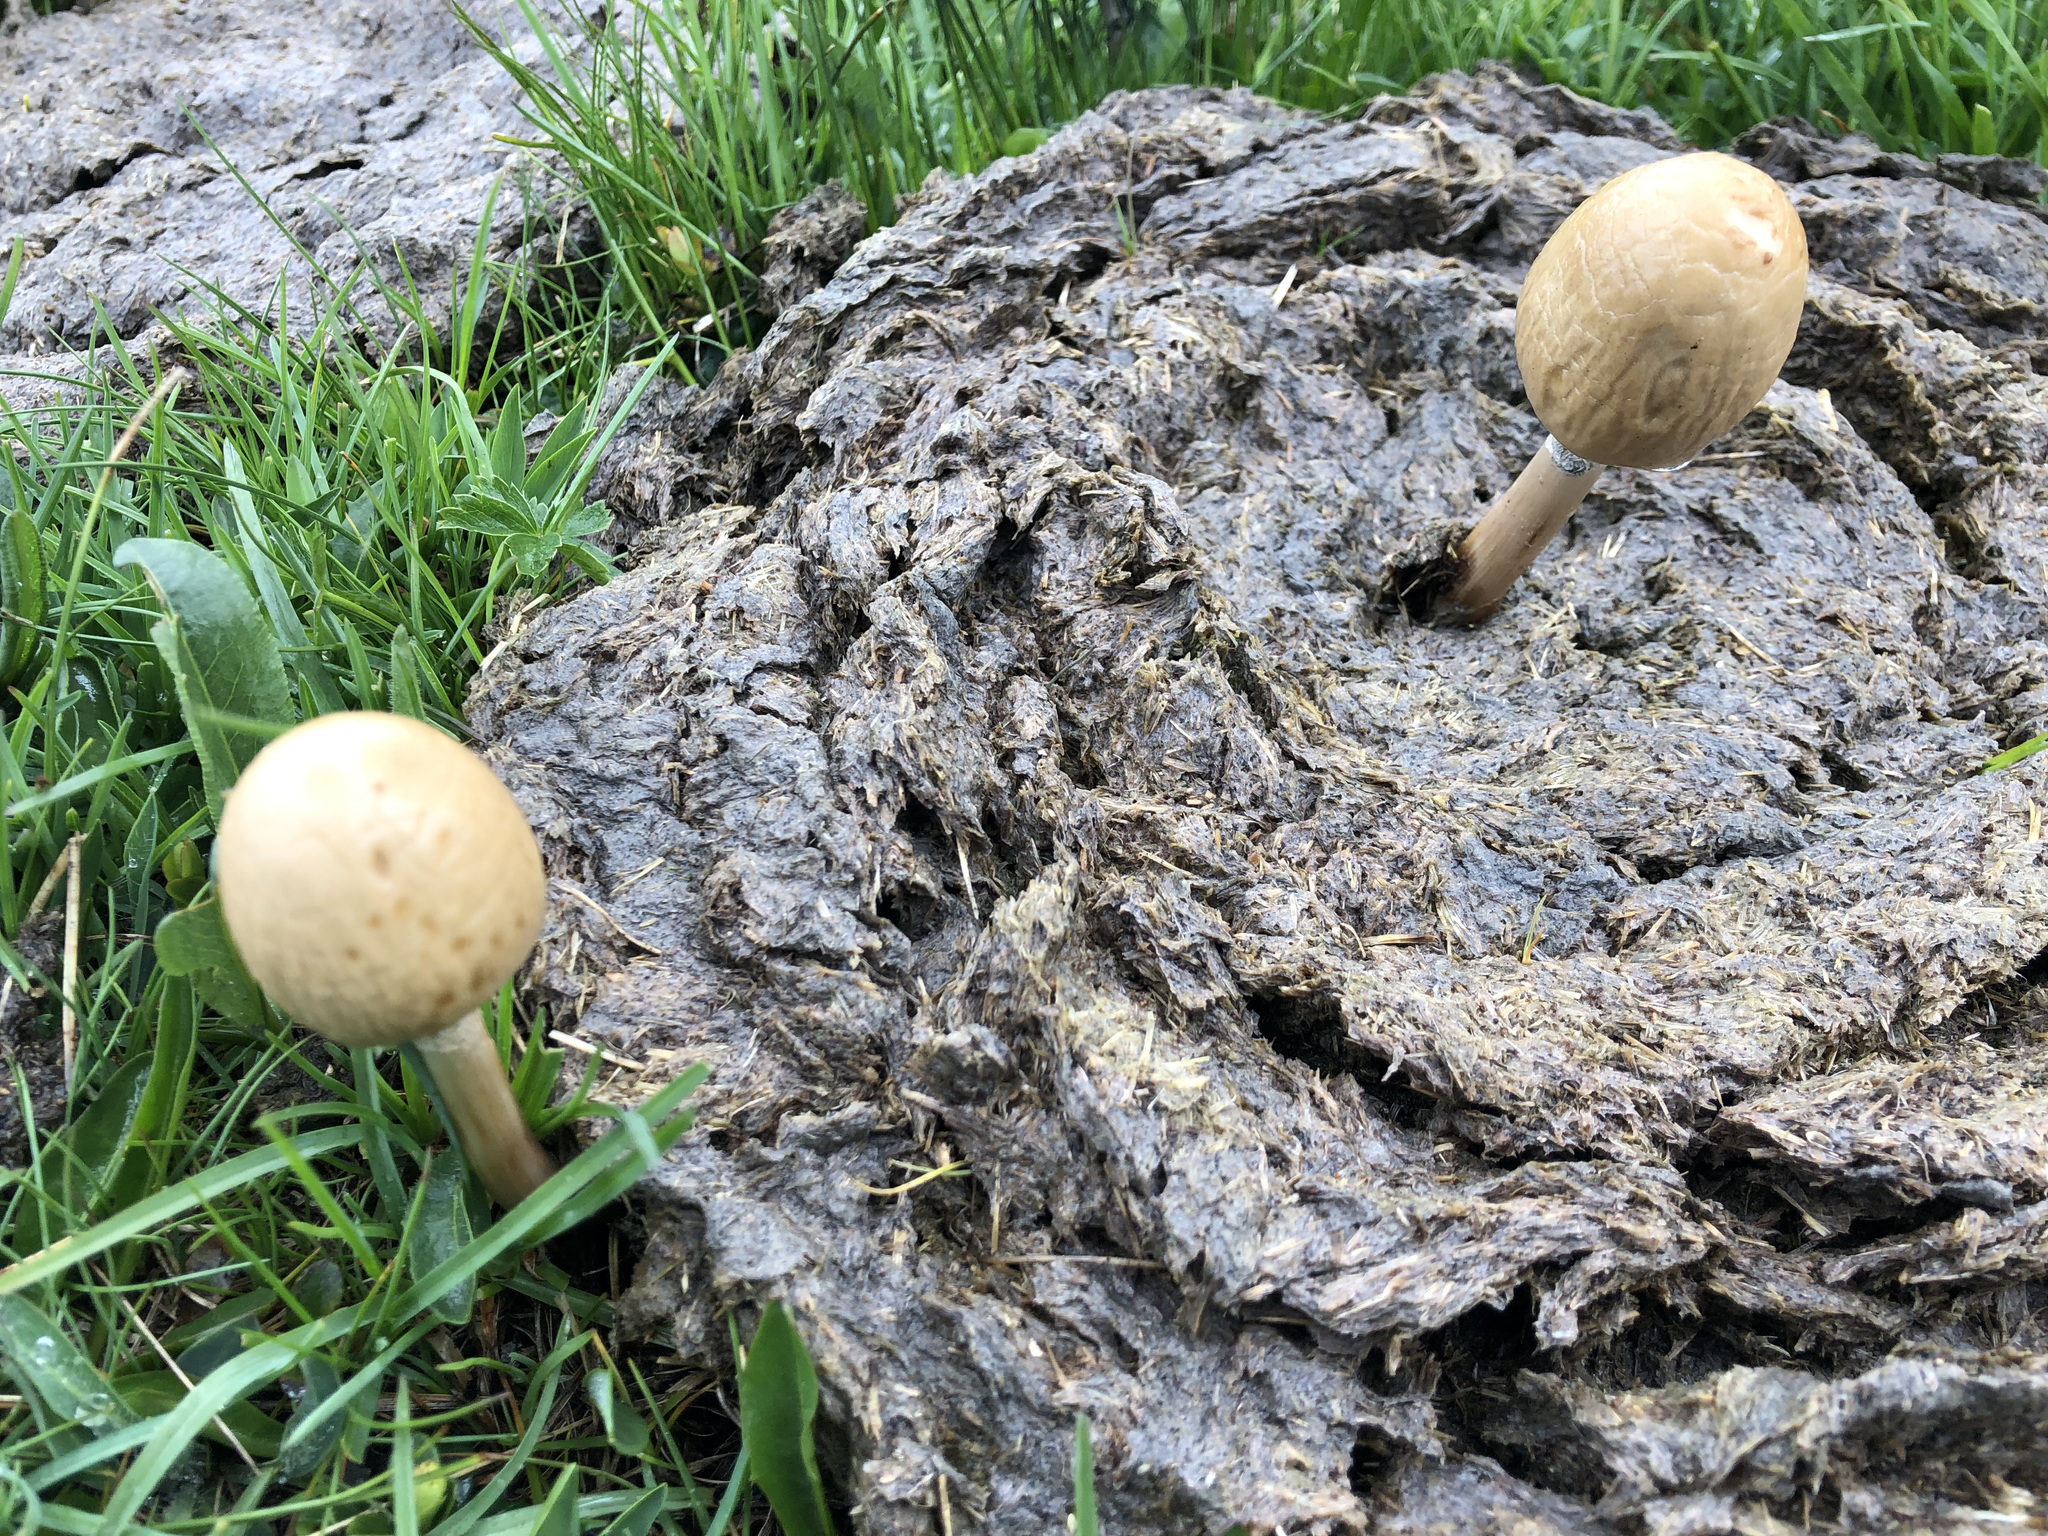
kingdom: Fungi
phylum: Basidiomycota
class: Agaricomycetes
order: Agaricales
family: Bolbitiaceae
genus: Panaeolus
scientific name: Panaeolus semiovatus
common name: Shiny mottlegill
